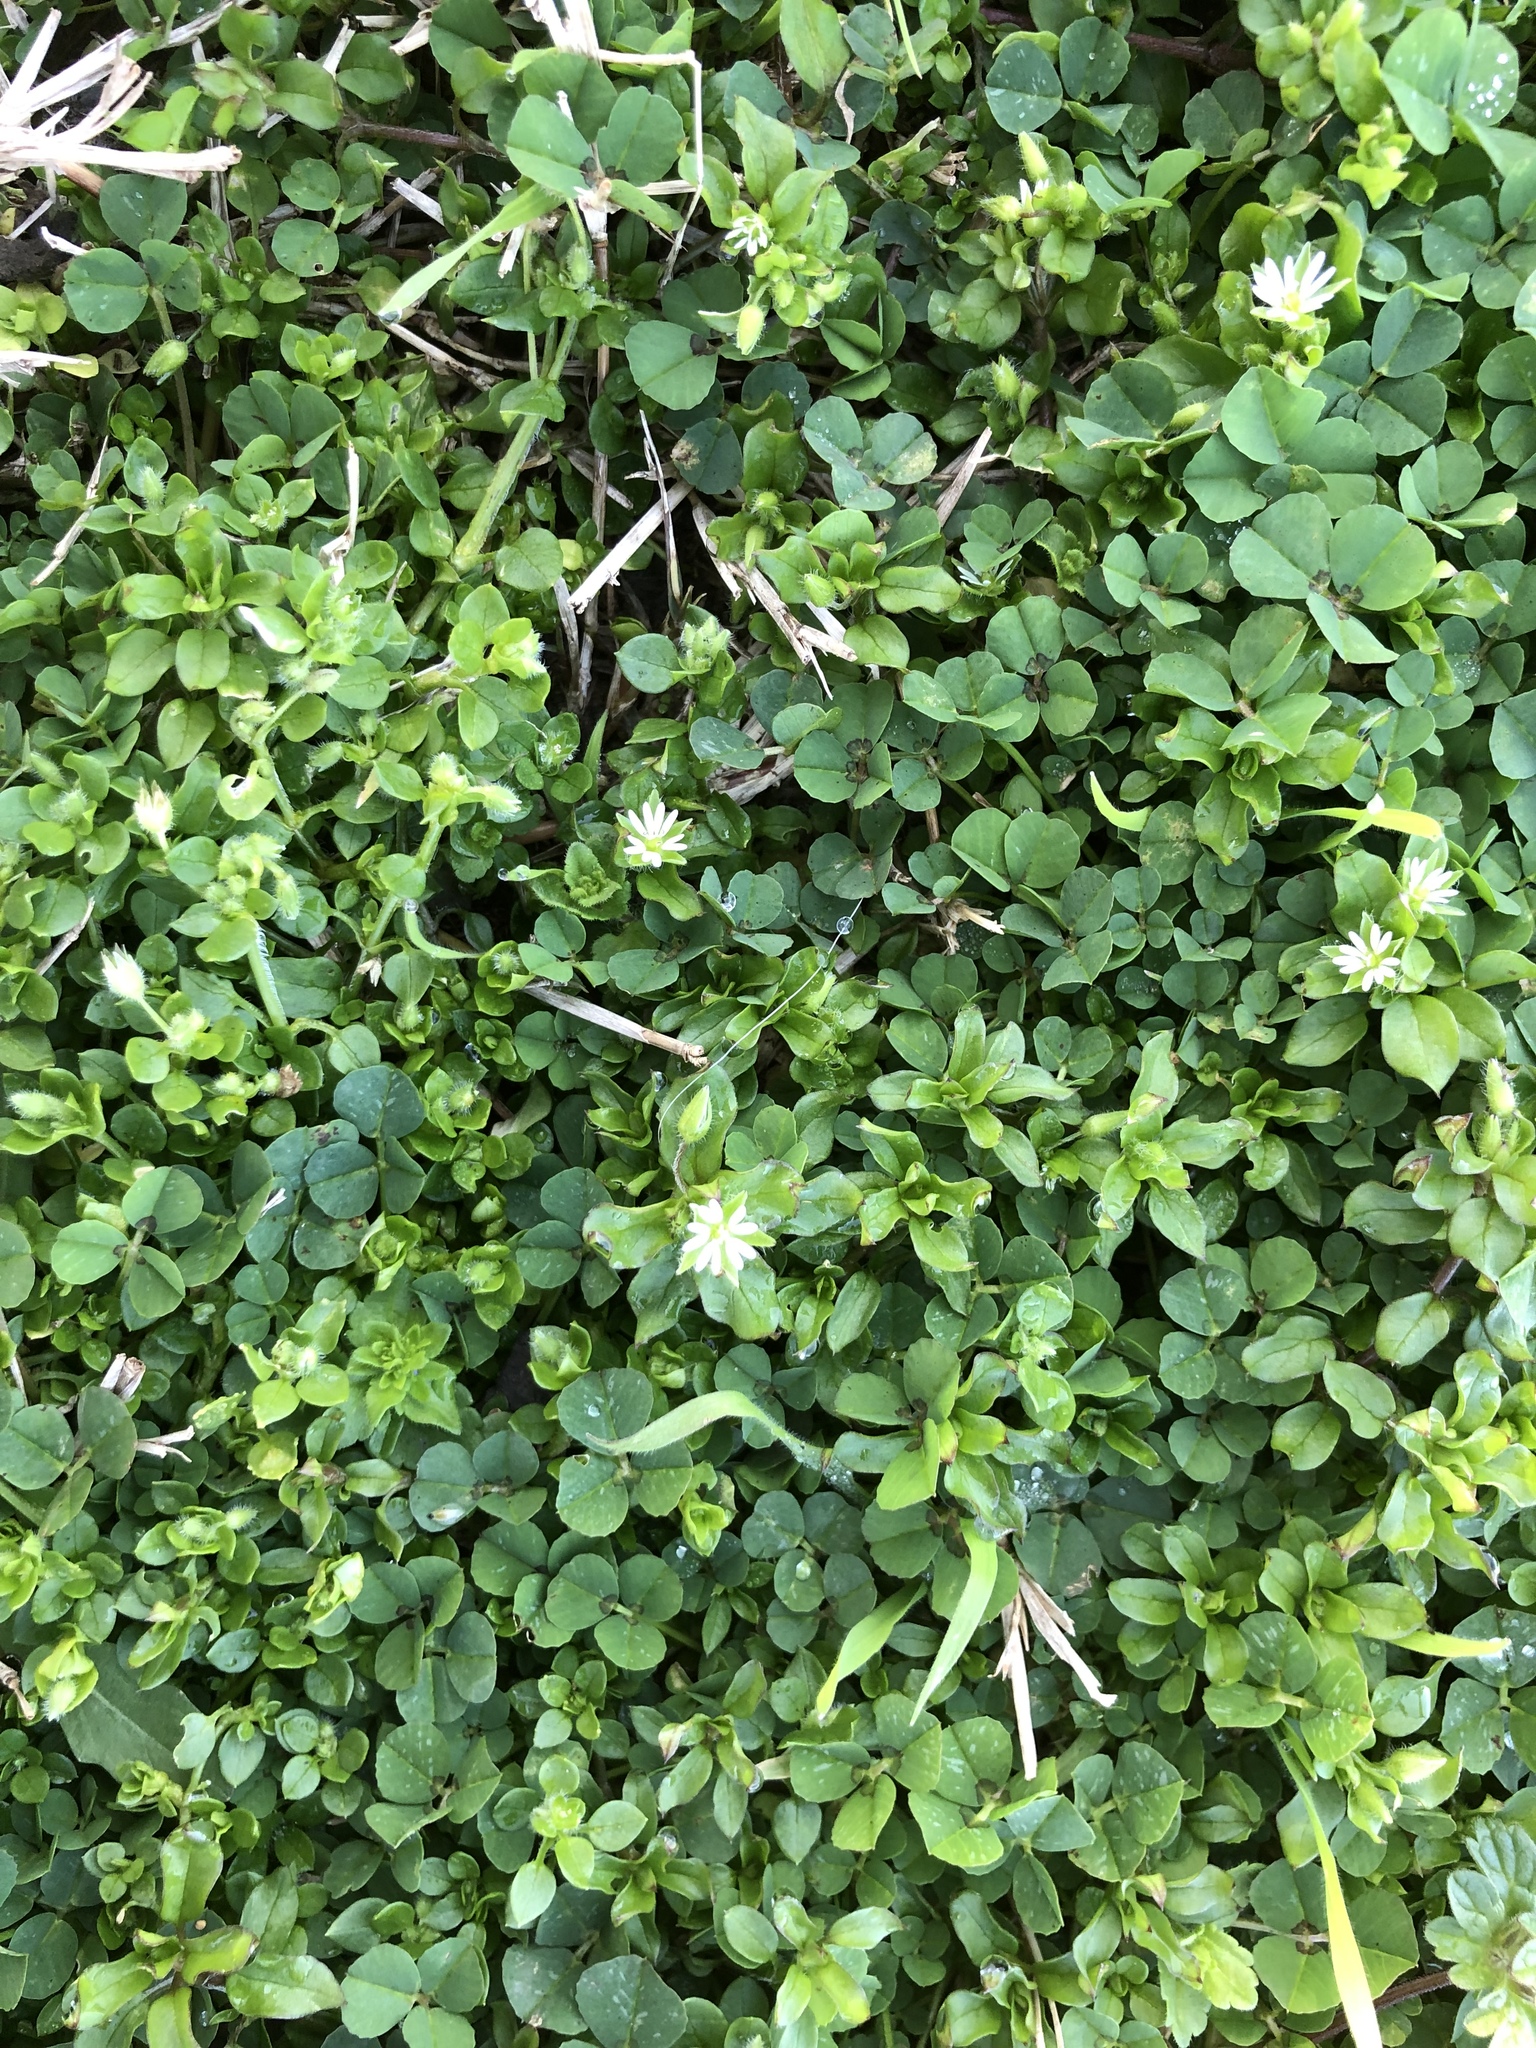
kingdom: Plantae
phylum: Tracheophyta
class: Magnoliopsida
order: Caryophyllales
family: Caryophyllaceae
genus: Stellaria
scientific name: Stellaria media
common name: Common chickweed
